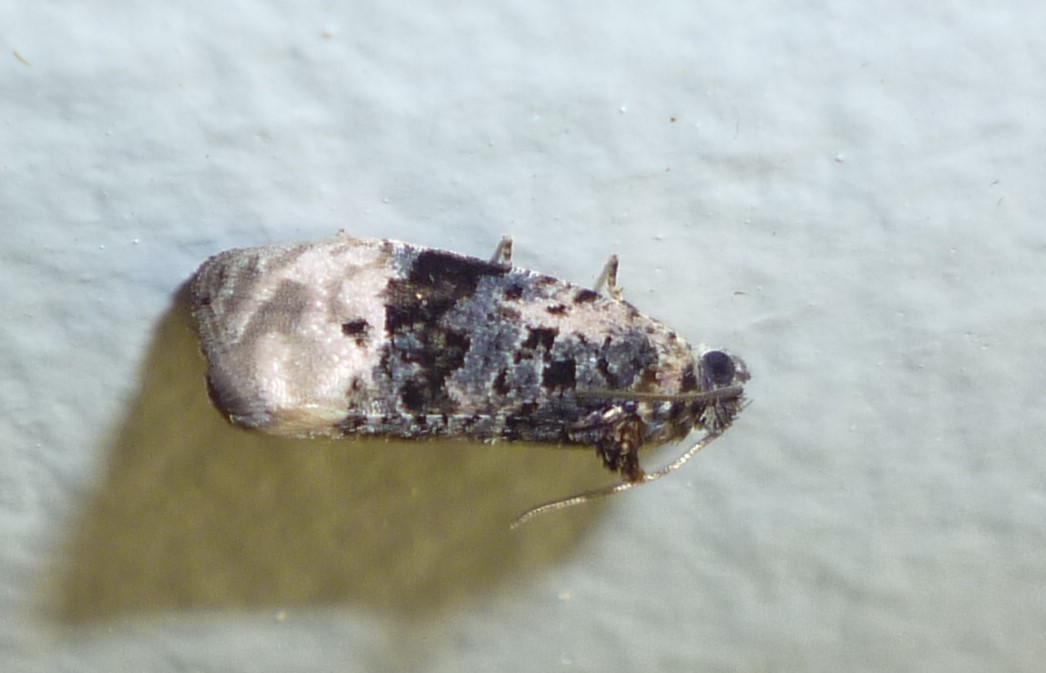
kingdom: Animalia
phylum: Arthropoda
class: Insecta
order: Lepidoptera
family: Tortricidae
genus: Hedya
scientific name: Hedya separatana
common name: Pink-washed leafroller moth
